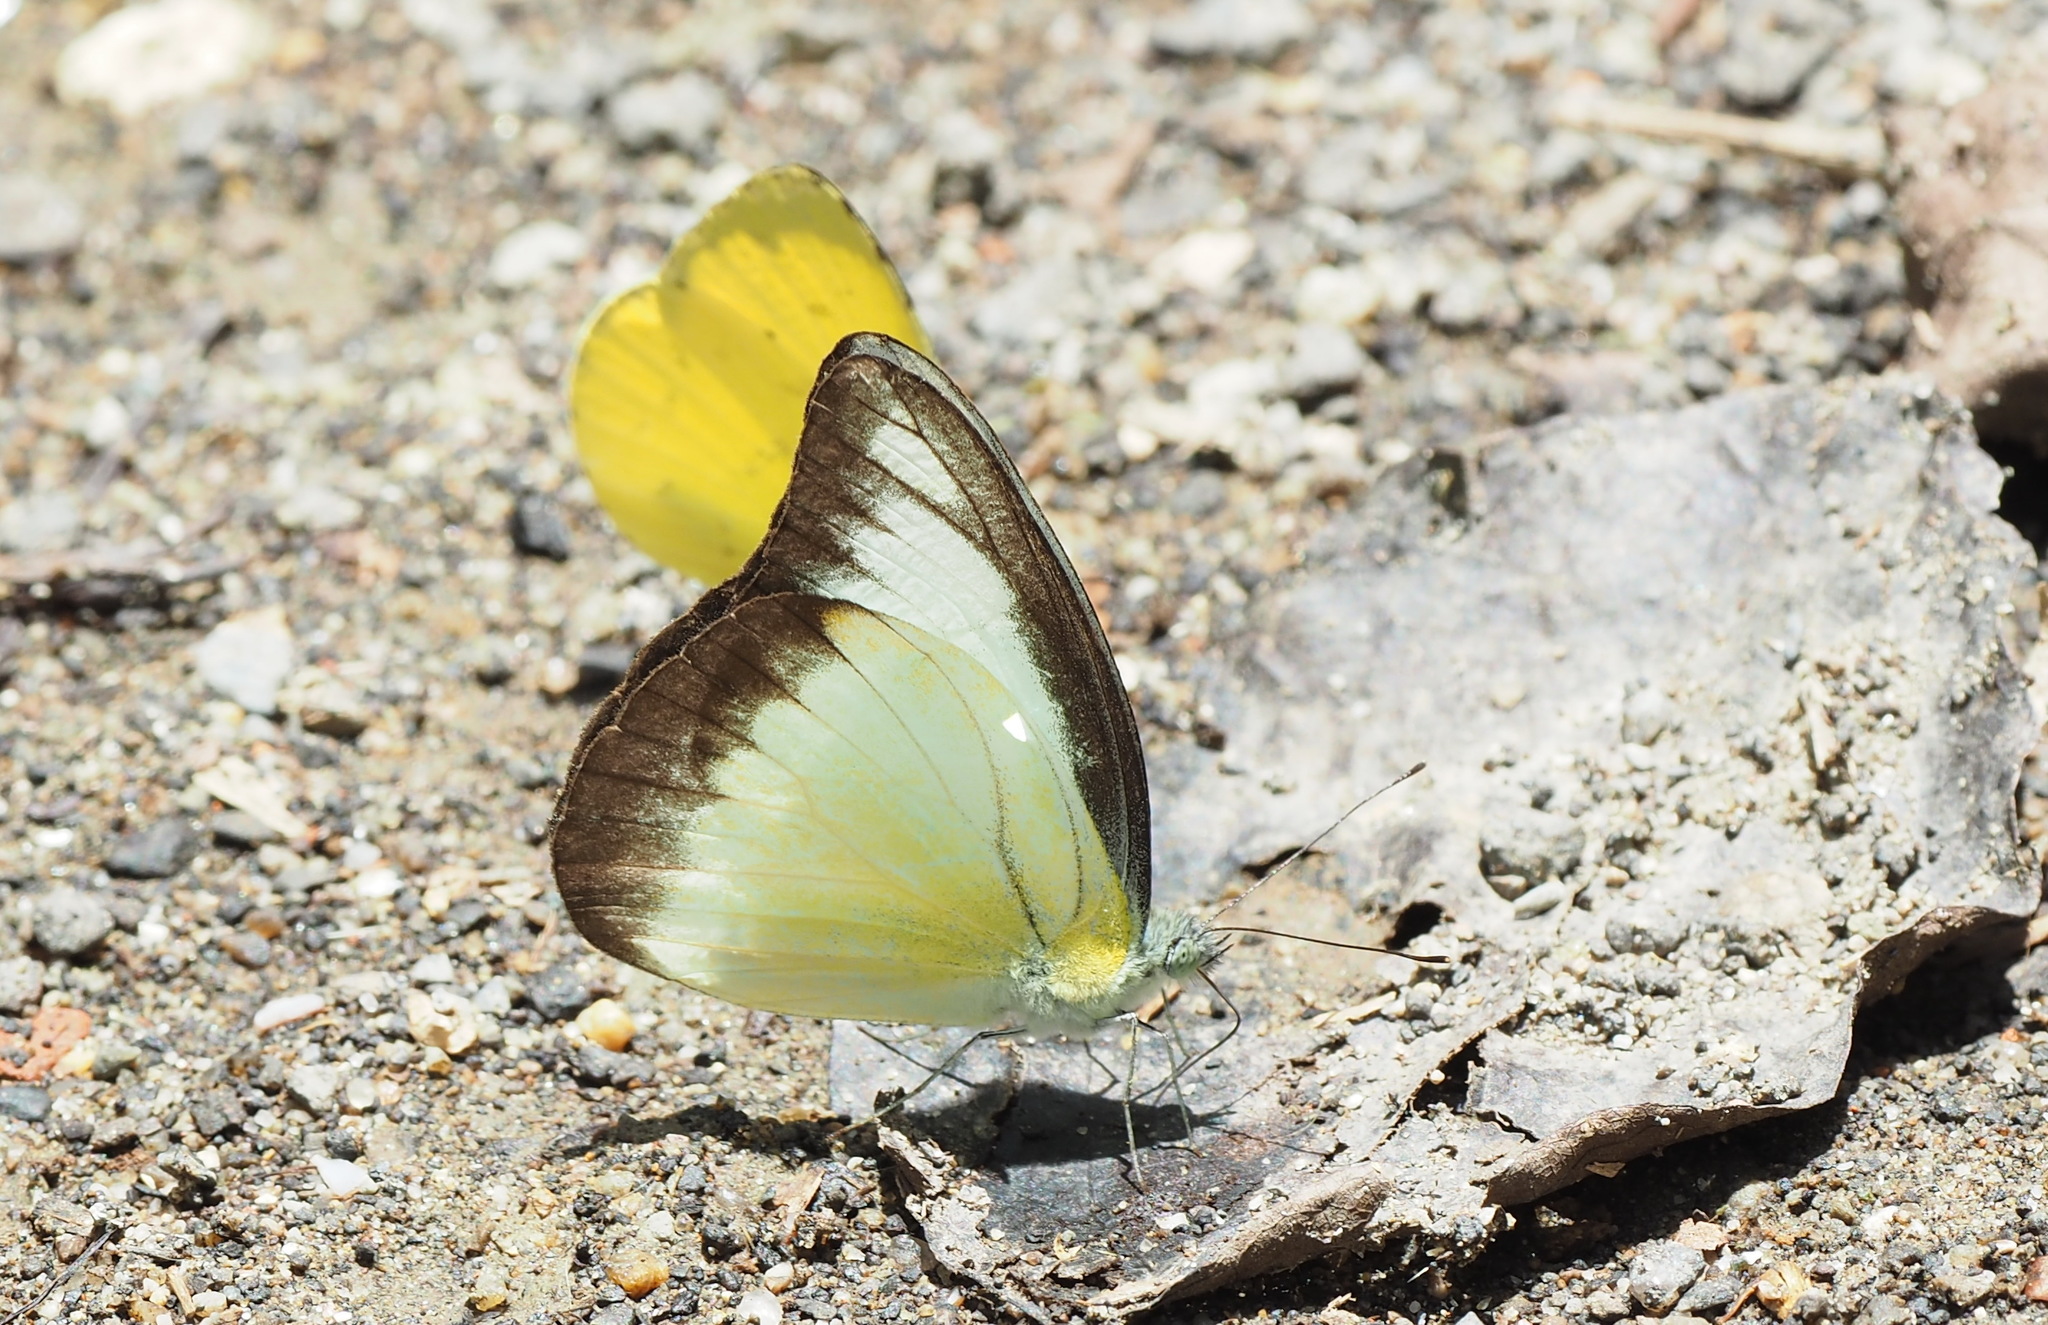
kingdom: Animalia
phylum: Arthropoda
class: Insecta
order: Lepidoptera
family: Pieridae
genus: Appias
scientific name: Appias lyncida
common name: Chocolate albatross
